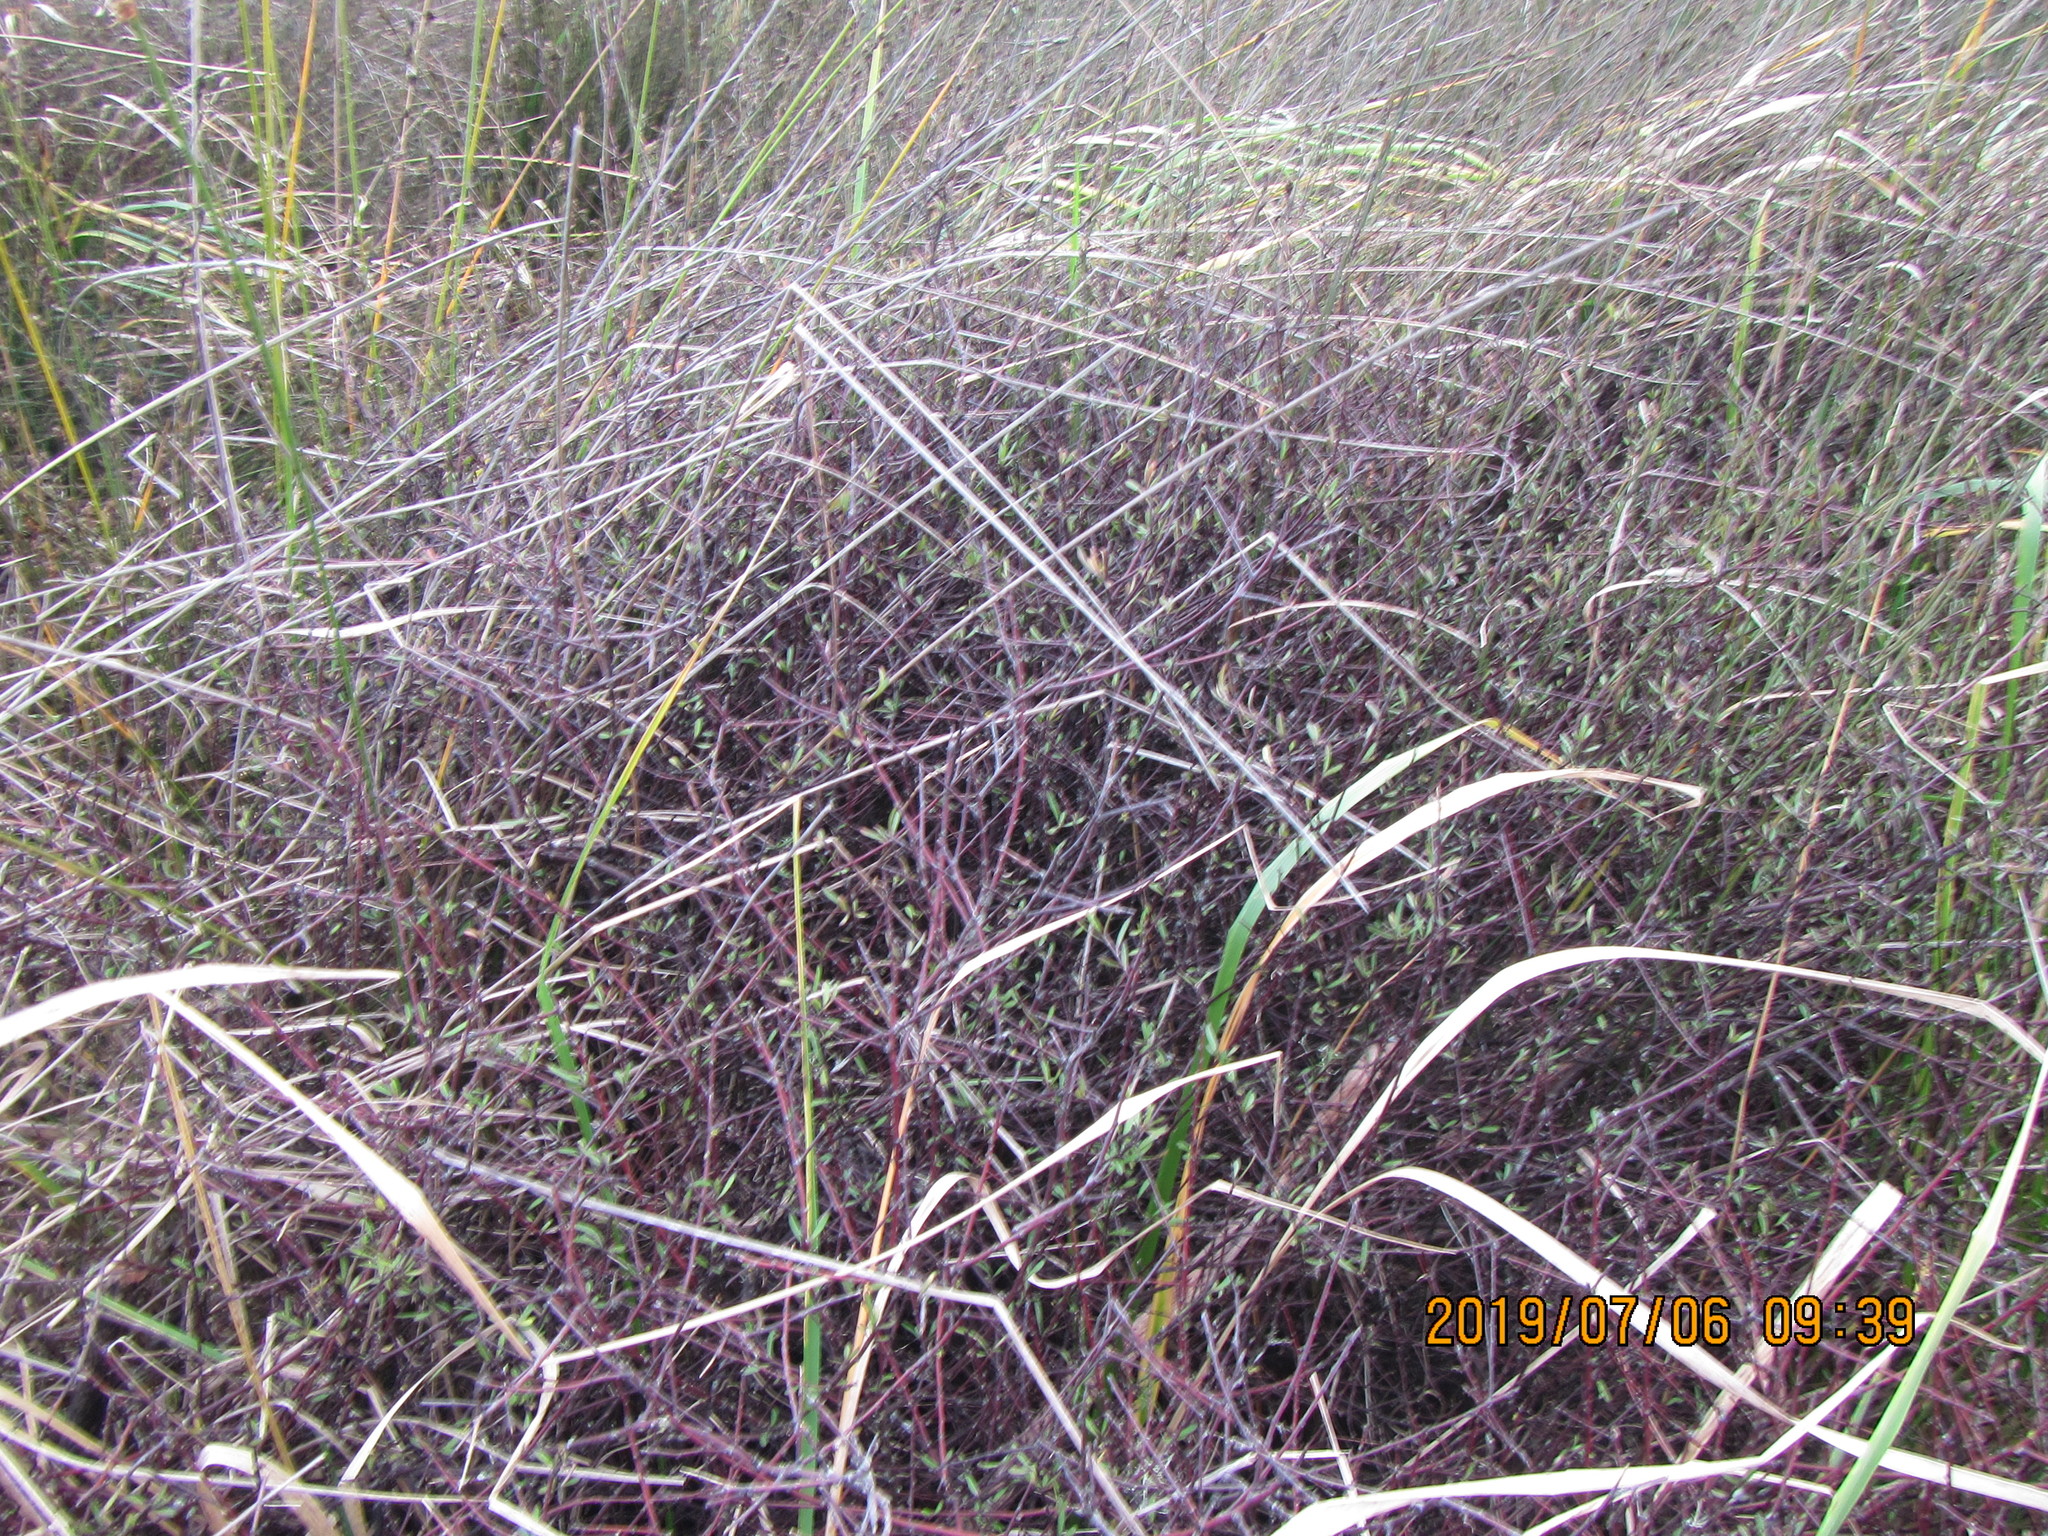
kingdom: Plantae
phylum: Tracheophyta
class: Magnoliopsida
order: Malvales
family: Malvaceae
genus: Plagianthus
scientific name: Plagianthus divaricatus
